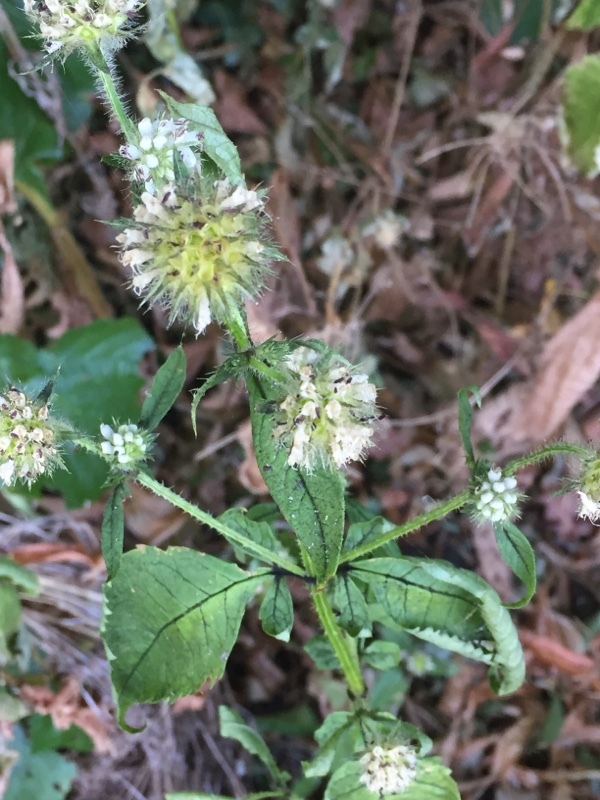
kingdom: Plantae
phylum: Tracheophyta
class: Magnoliopsida
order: Dipsacales
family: Caprifoliaceae
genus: Dipsacus
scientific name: Dipsacus pilosus
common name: Small teasel
